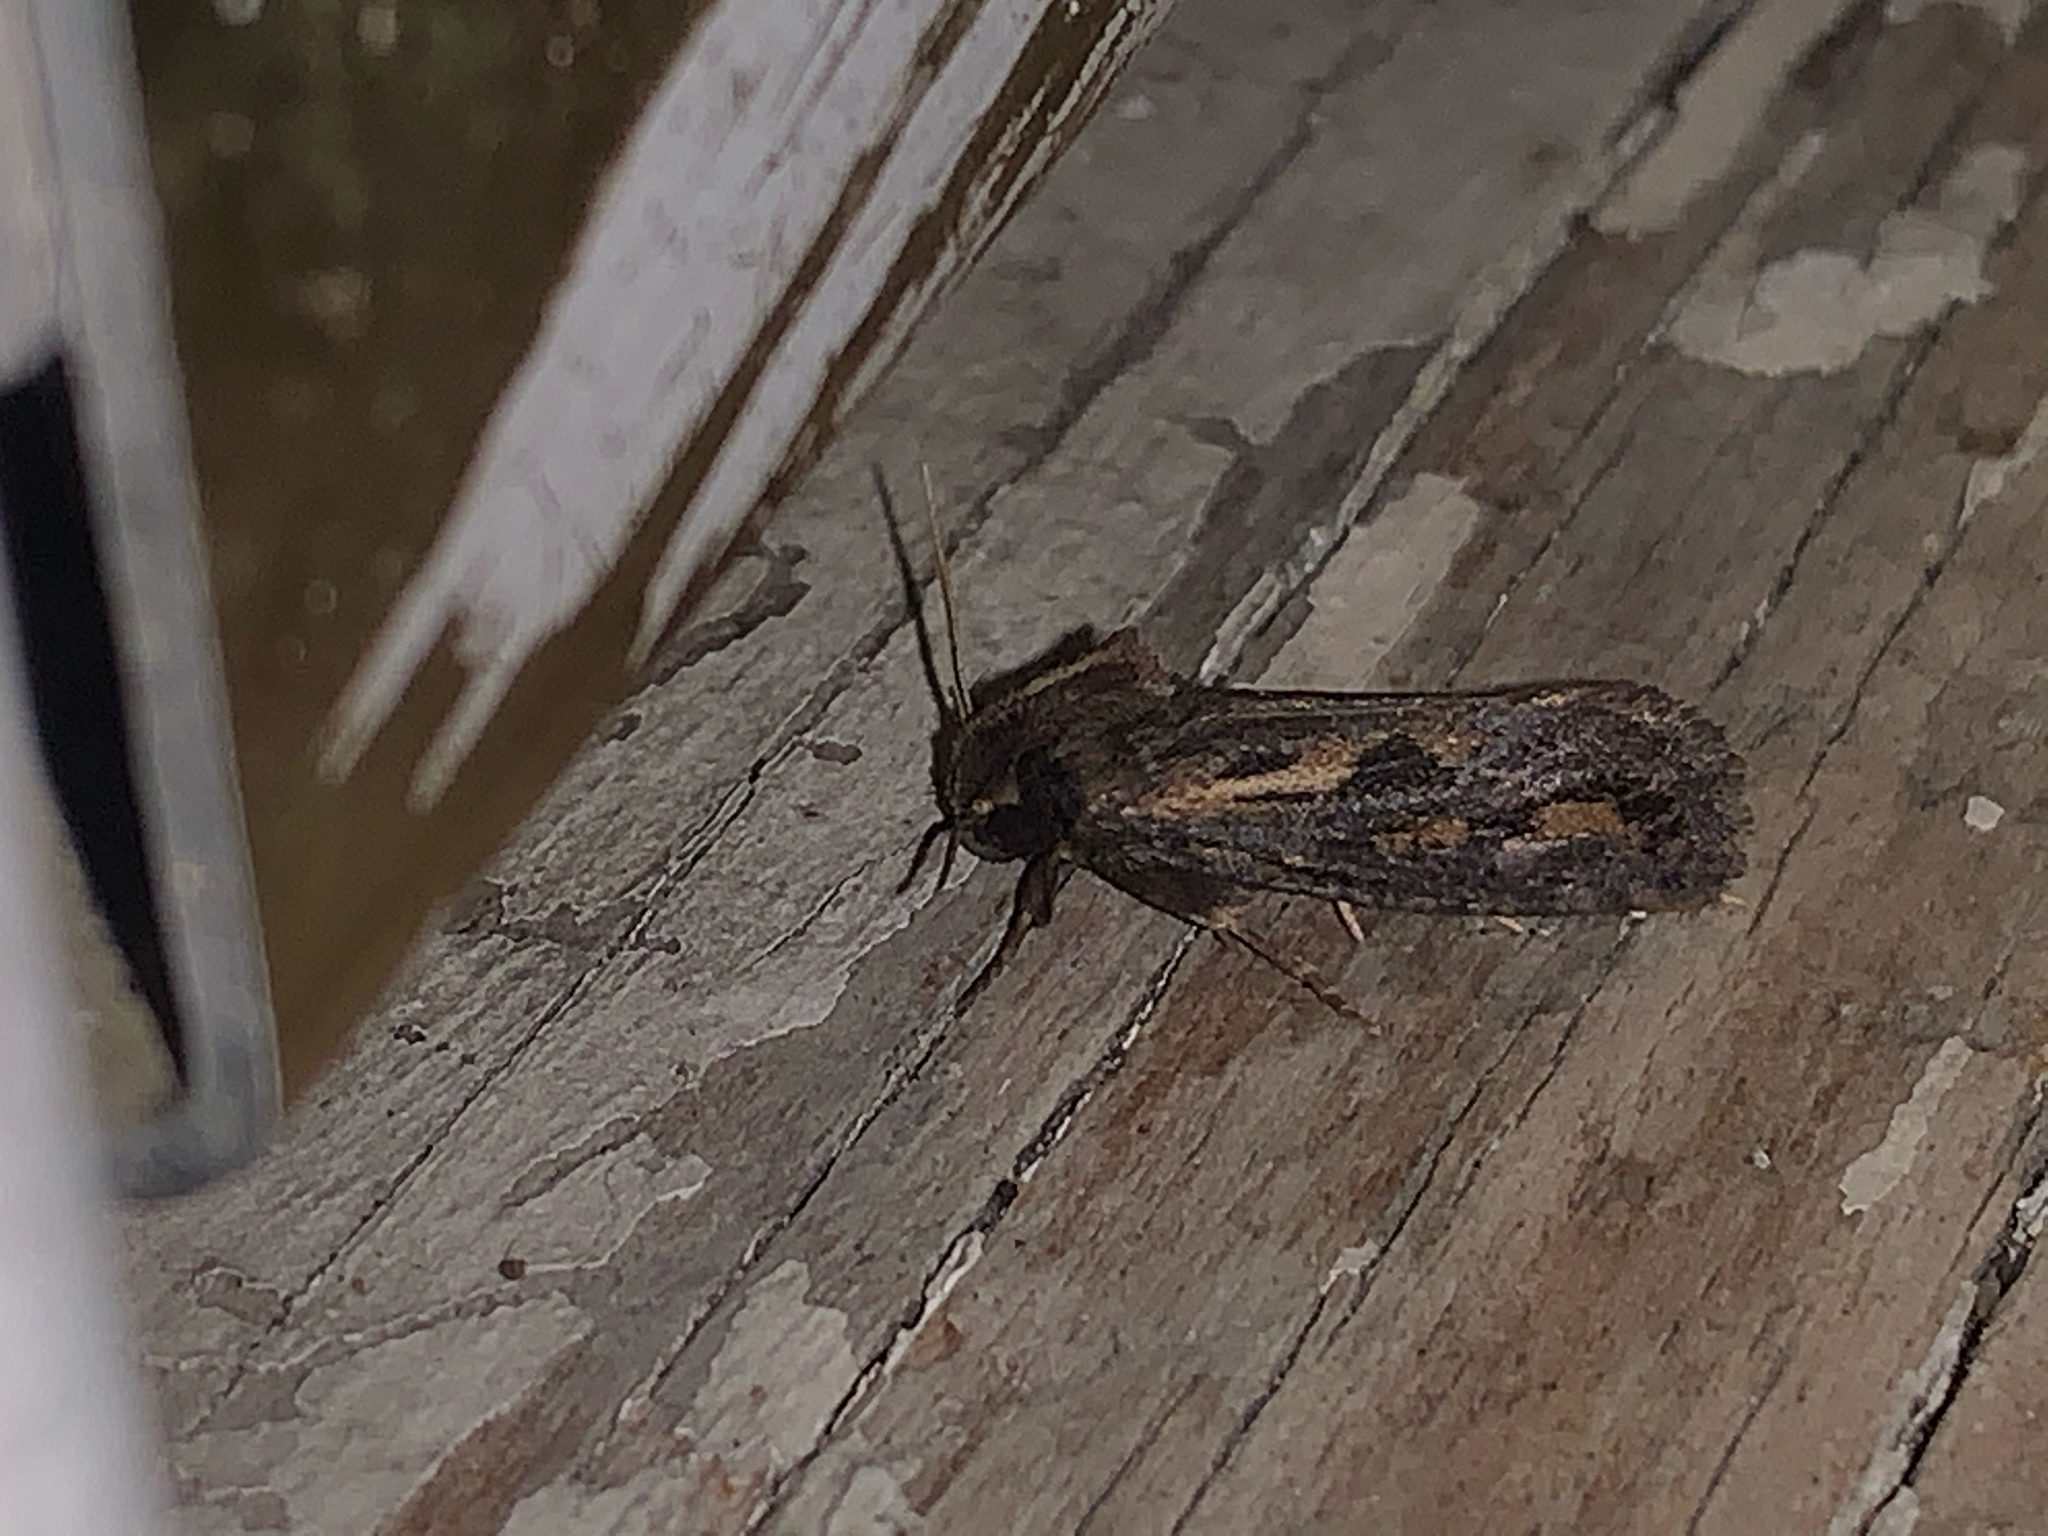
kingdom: Animalia
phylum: Arthropoda
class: Insecta
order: Lepidoptera
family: Tineidae
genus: Acrolophus
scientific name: Acrolophus popeanella
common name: Clemens' grass tubeworm moth
